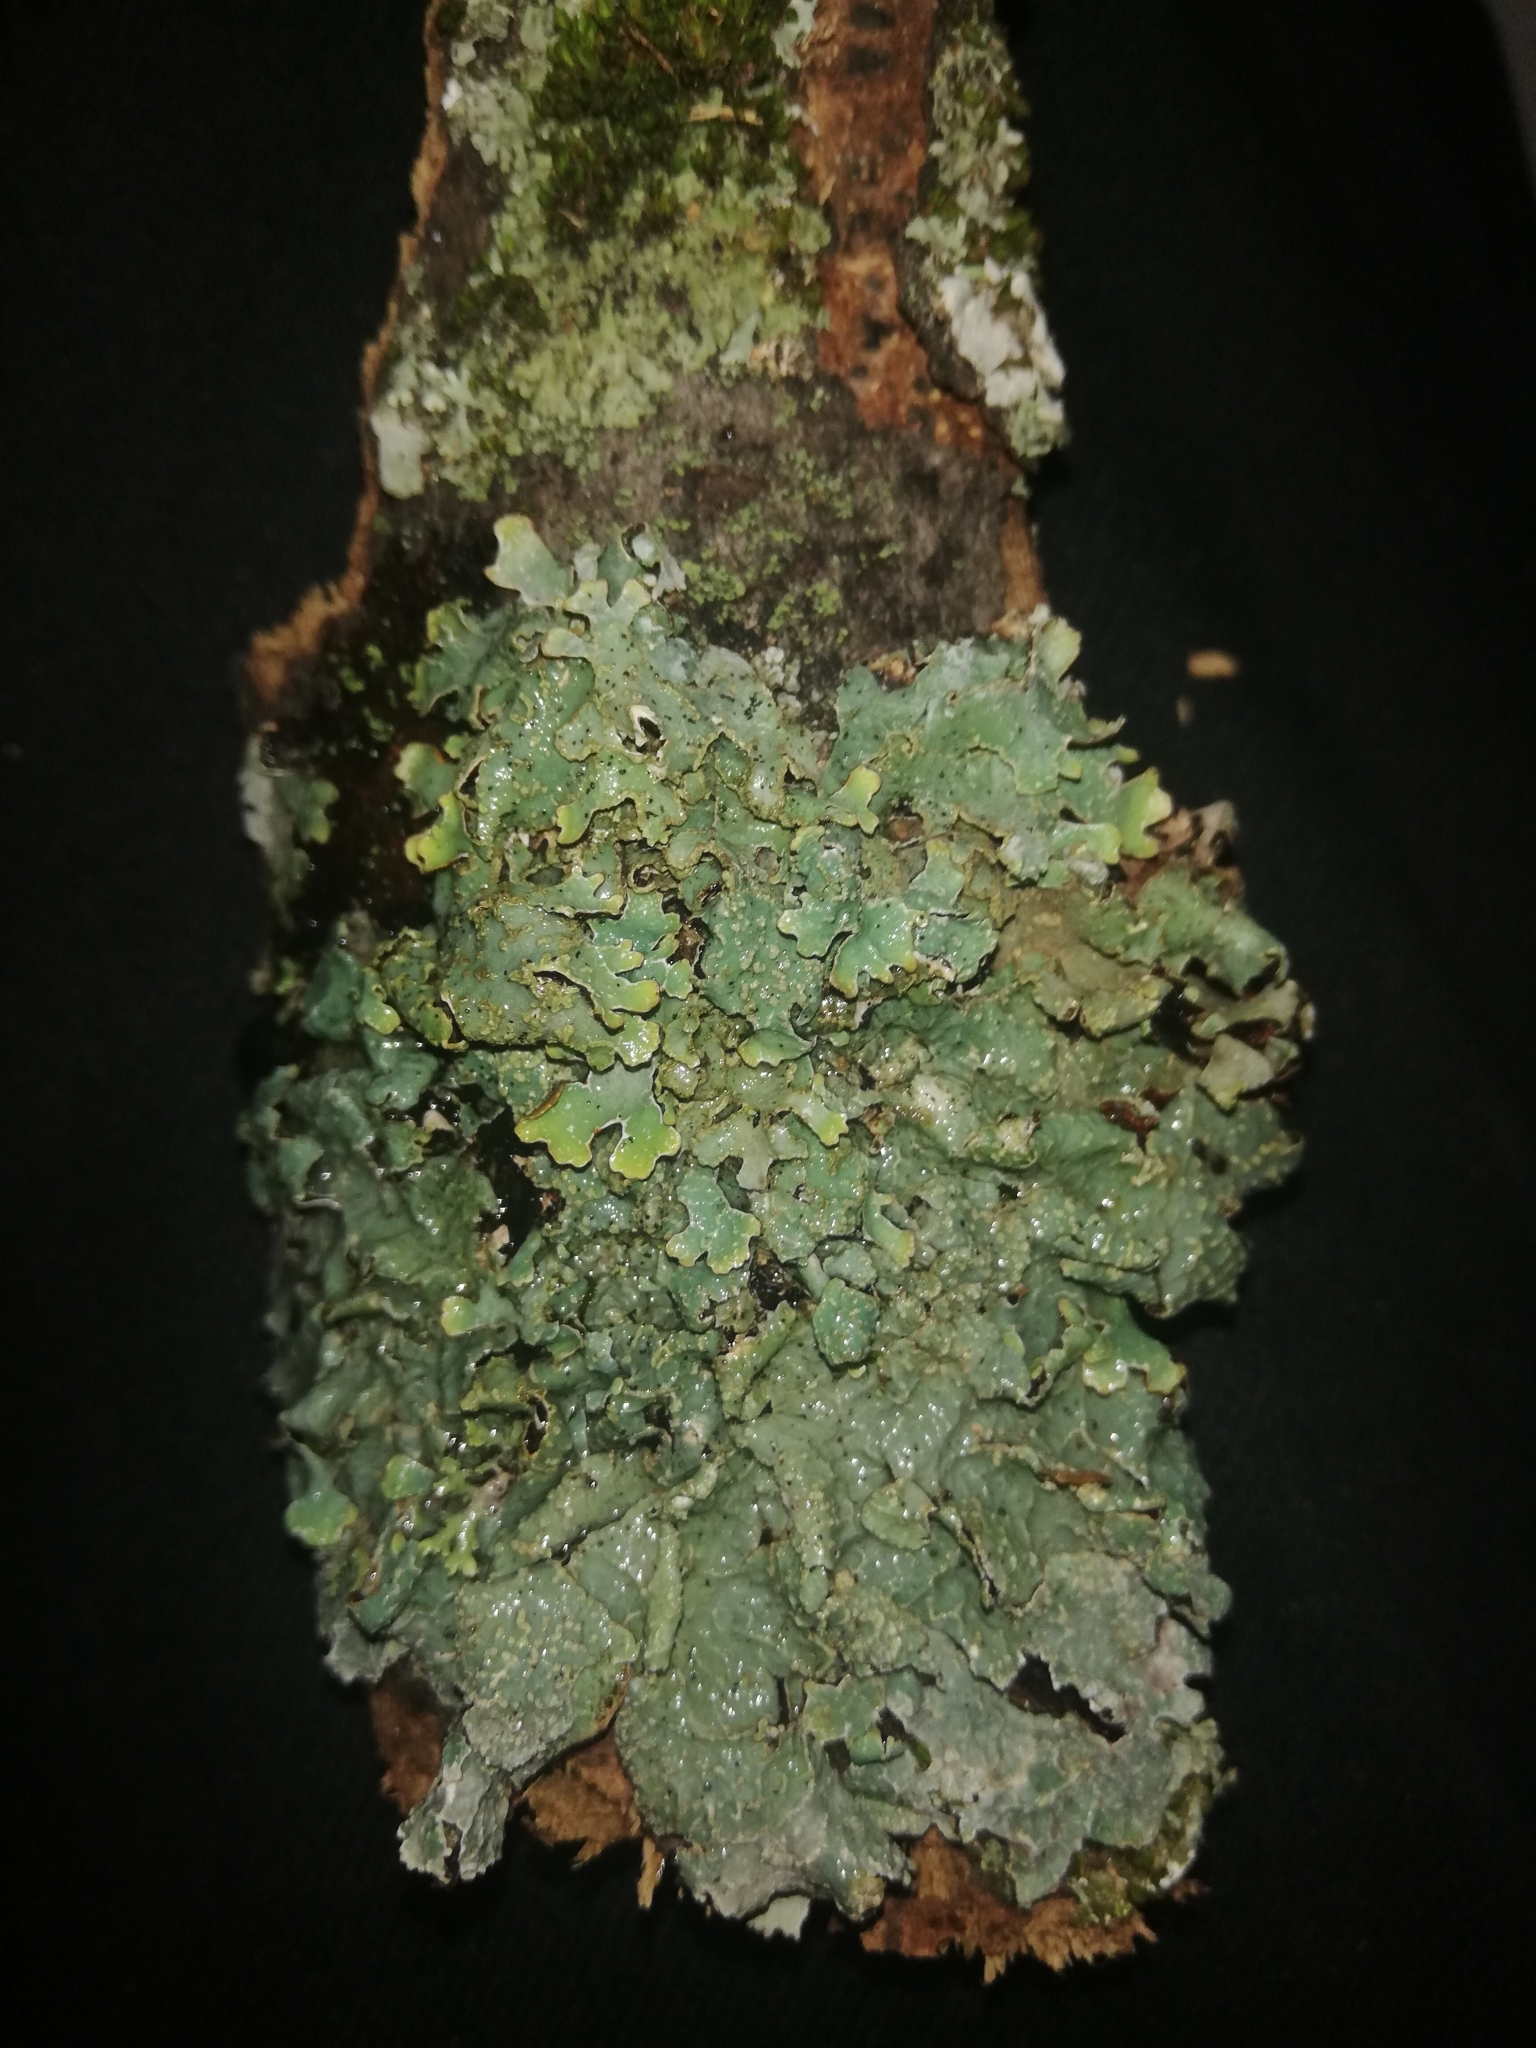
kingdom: Fungi
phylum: Ascomycota
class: Lecanoromycetes
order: Lecanorales
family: Parmeliaceae
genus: Parmelia
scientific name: Parmelia sulcata
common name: Netted shield lichen
